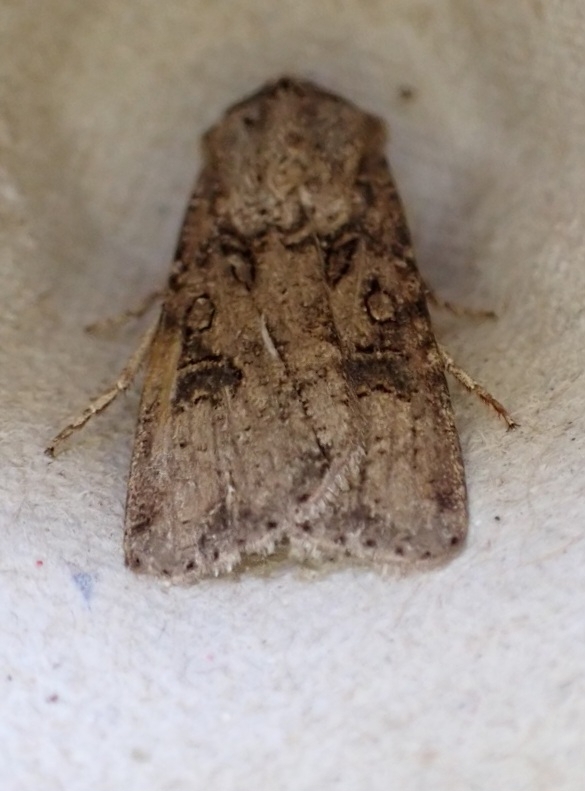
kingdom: Animalia
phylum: Arthropoda
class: Insecta
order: Lepidoptera
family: Noctuidae
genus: Agrotis
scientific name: Agrotis segetum
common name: Turnip moth
